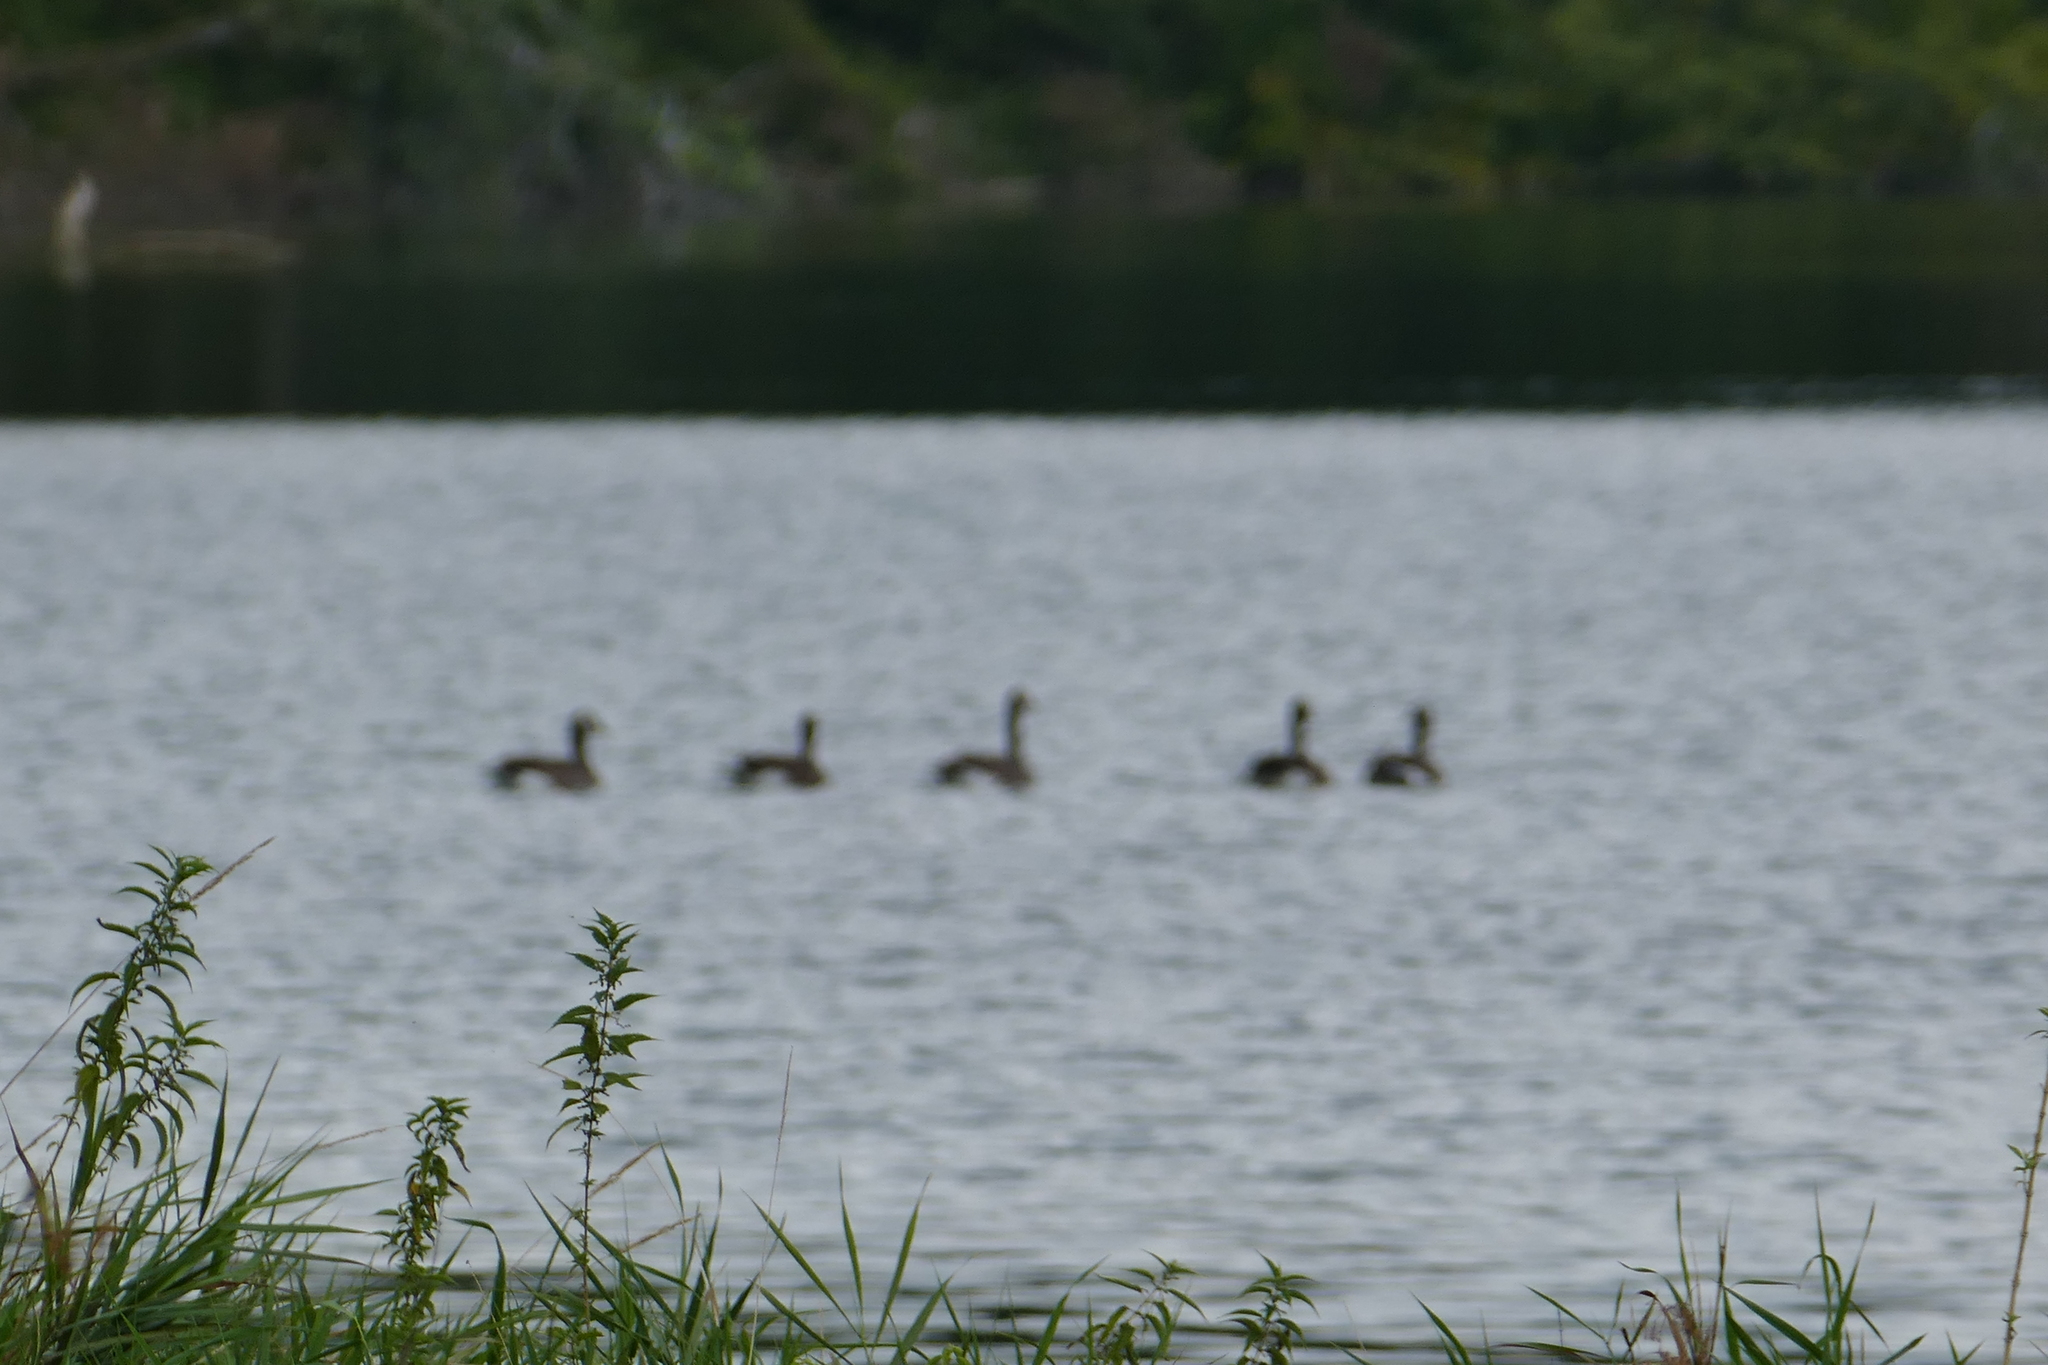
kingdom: Animalia
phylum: Chordata
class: Aves
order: Anseriformes
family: Anatidae
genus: Branta
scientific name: Branta canadensis
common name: Canada goose
